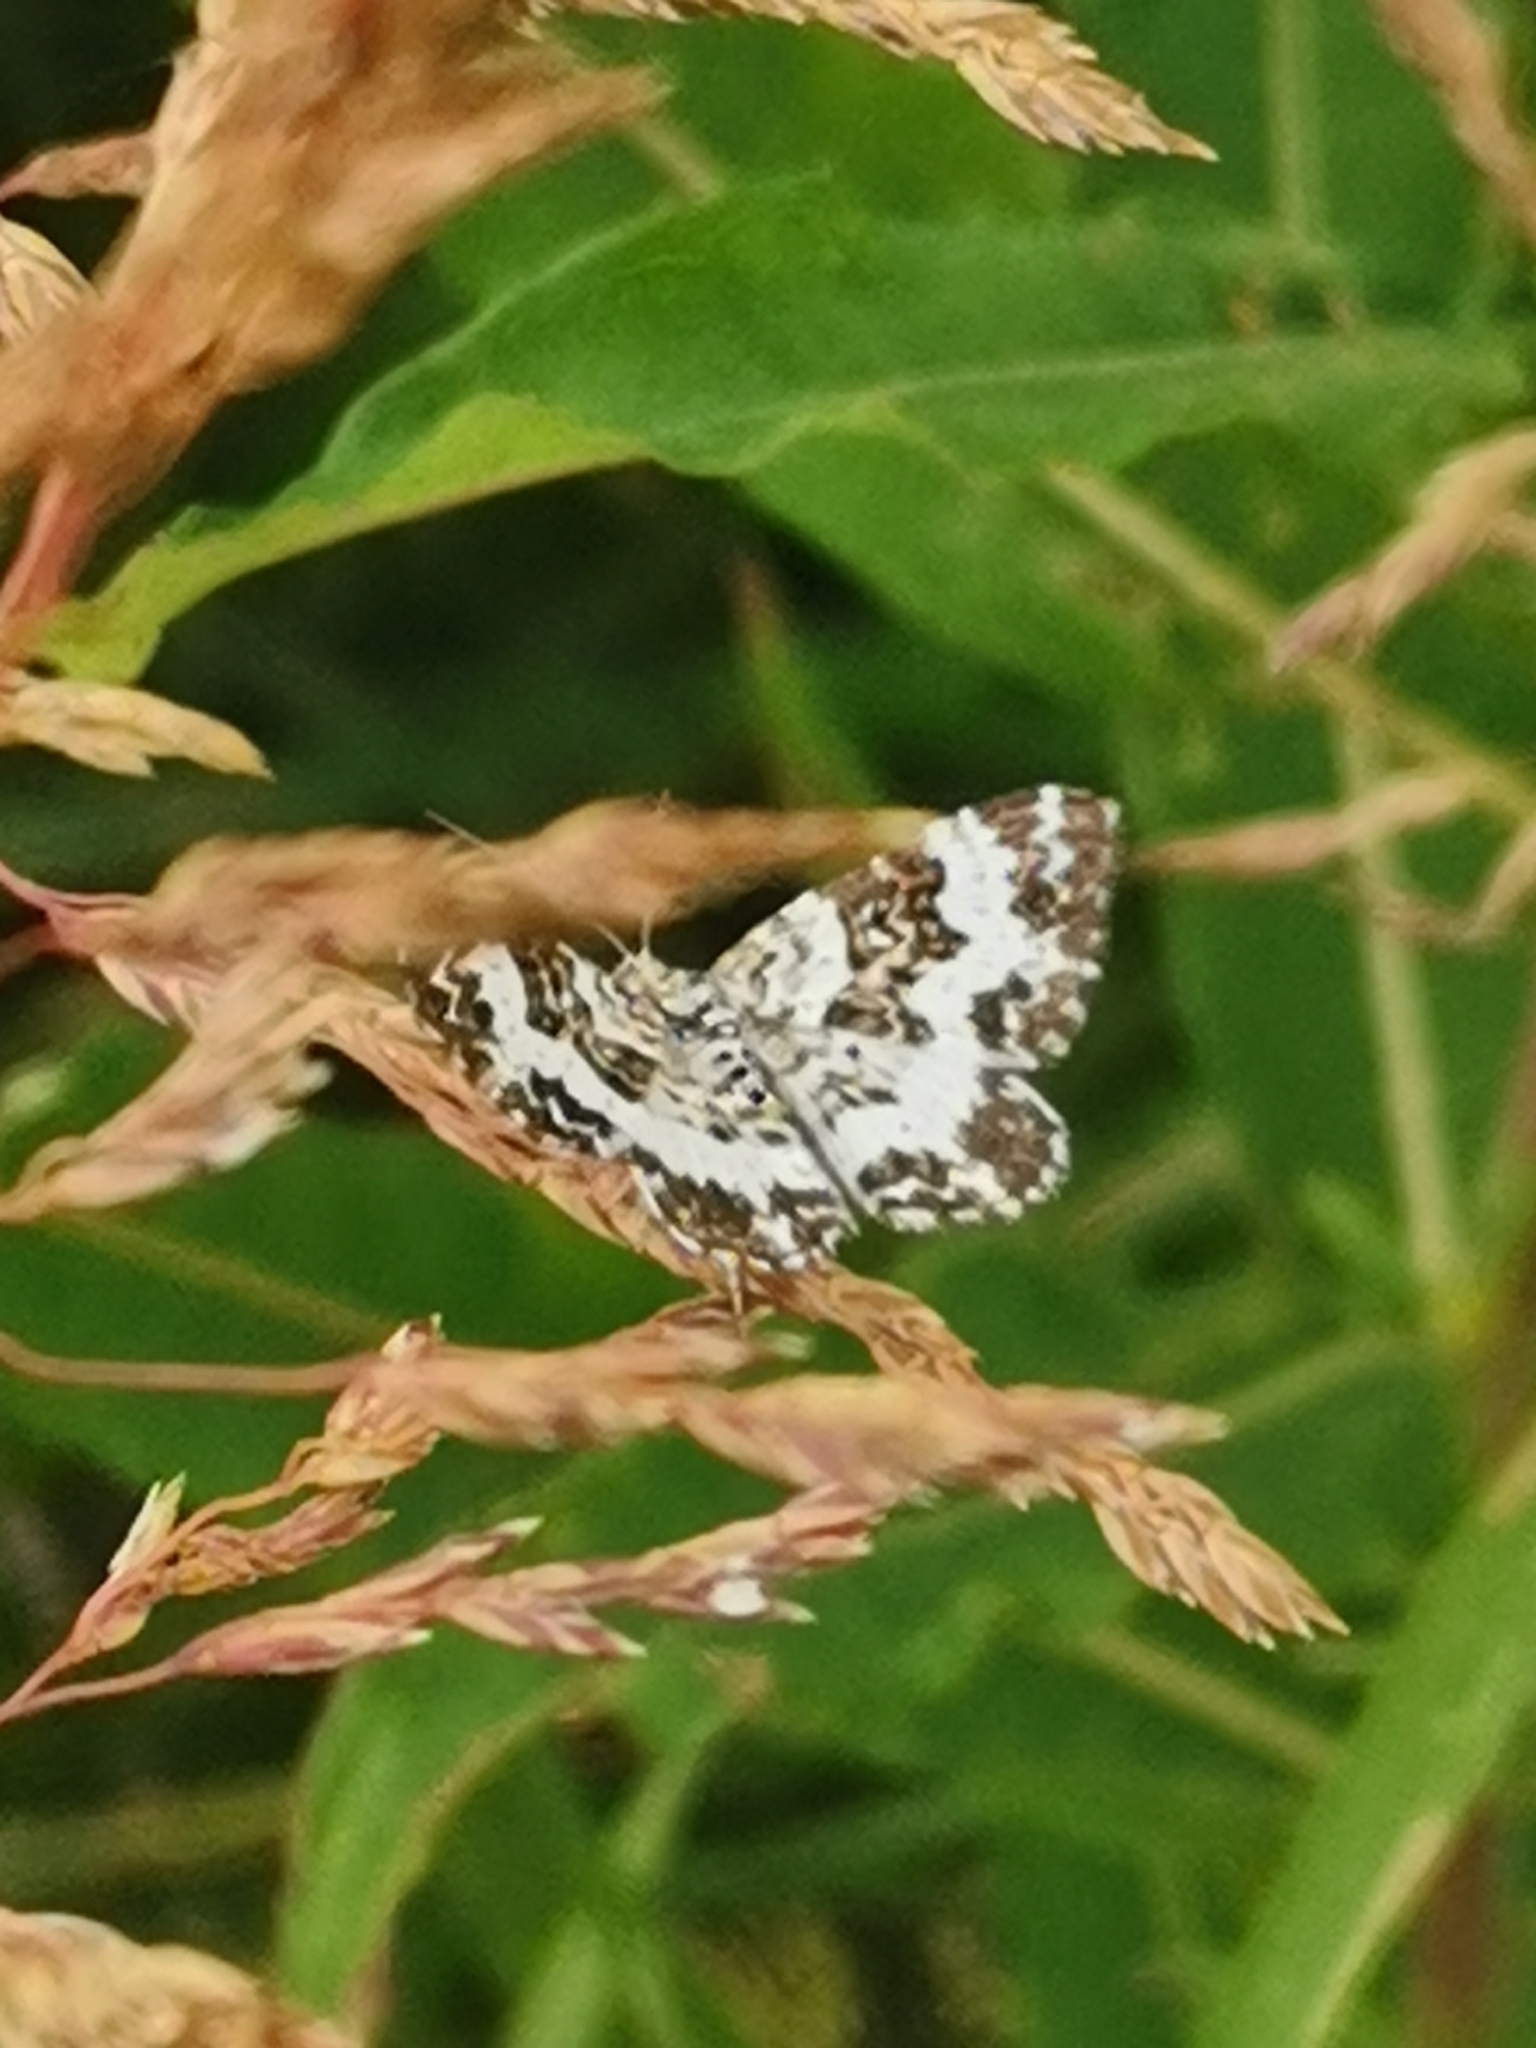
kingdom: Animalia
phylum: Arthropoda
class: Insecta
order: Lepidoptera
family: Geometridae
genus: Epirrhoe
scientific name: Epirrhoe tristata
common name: Small argent & sable
